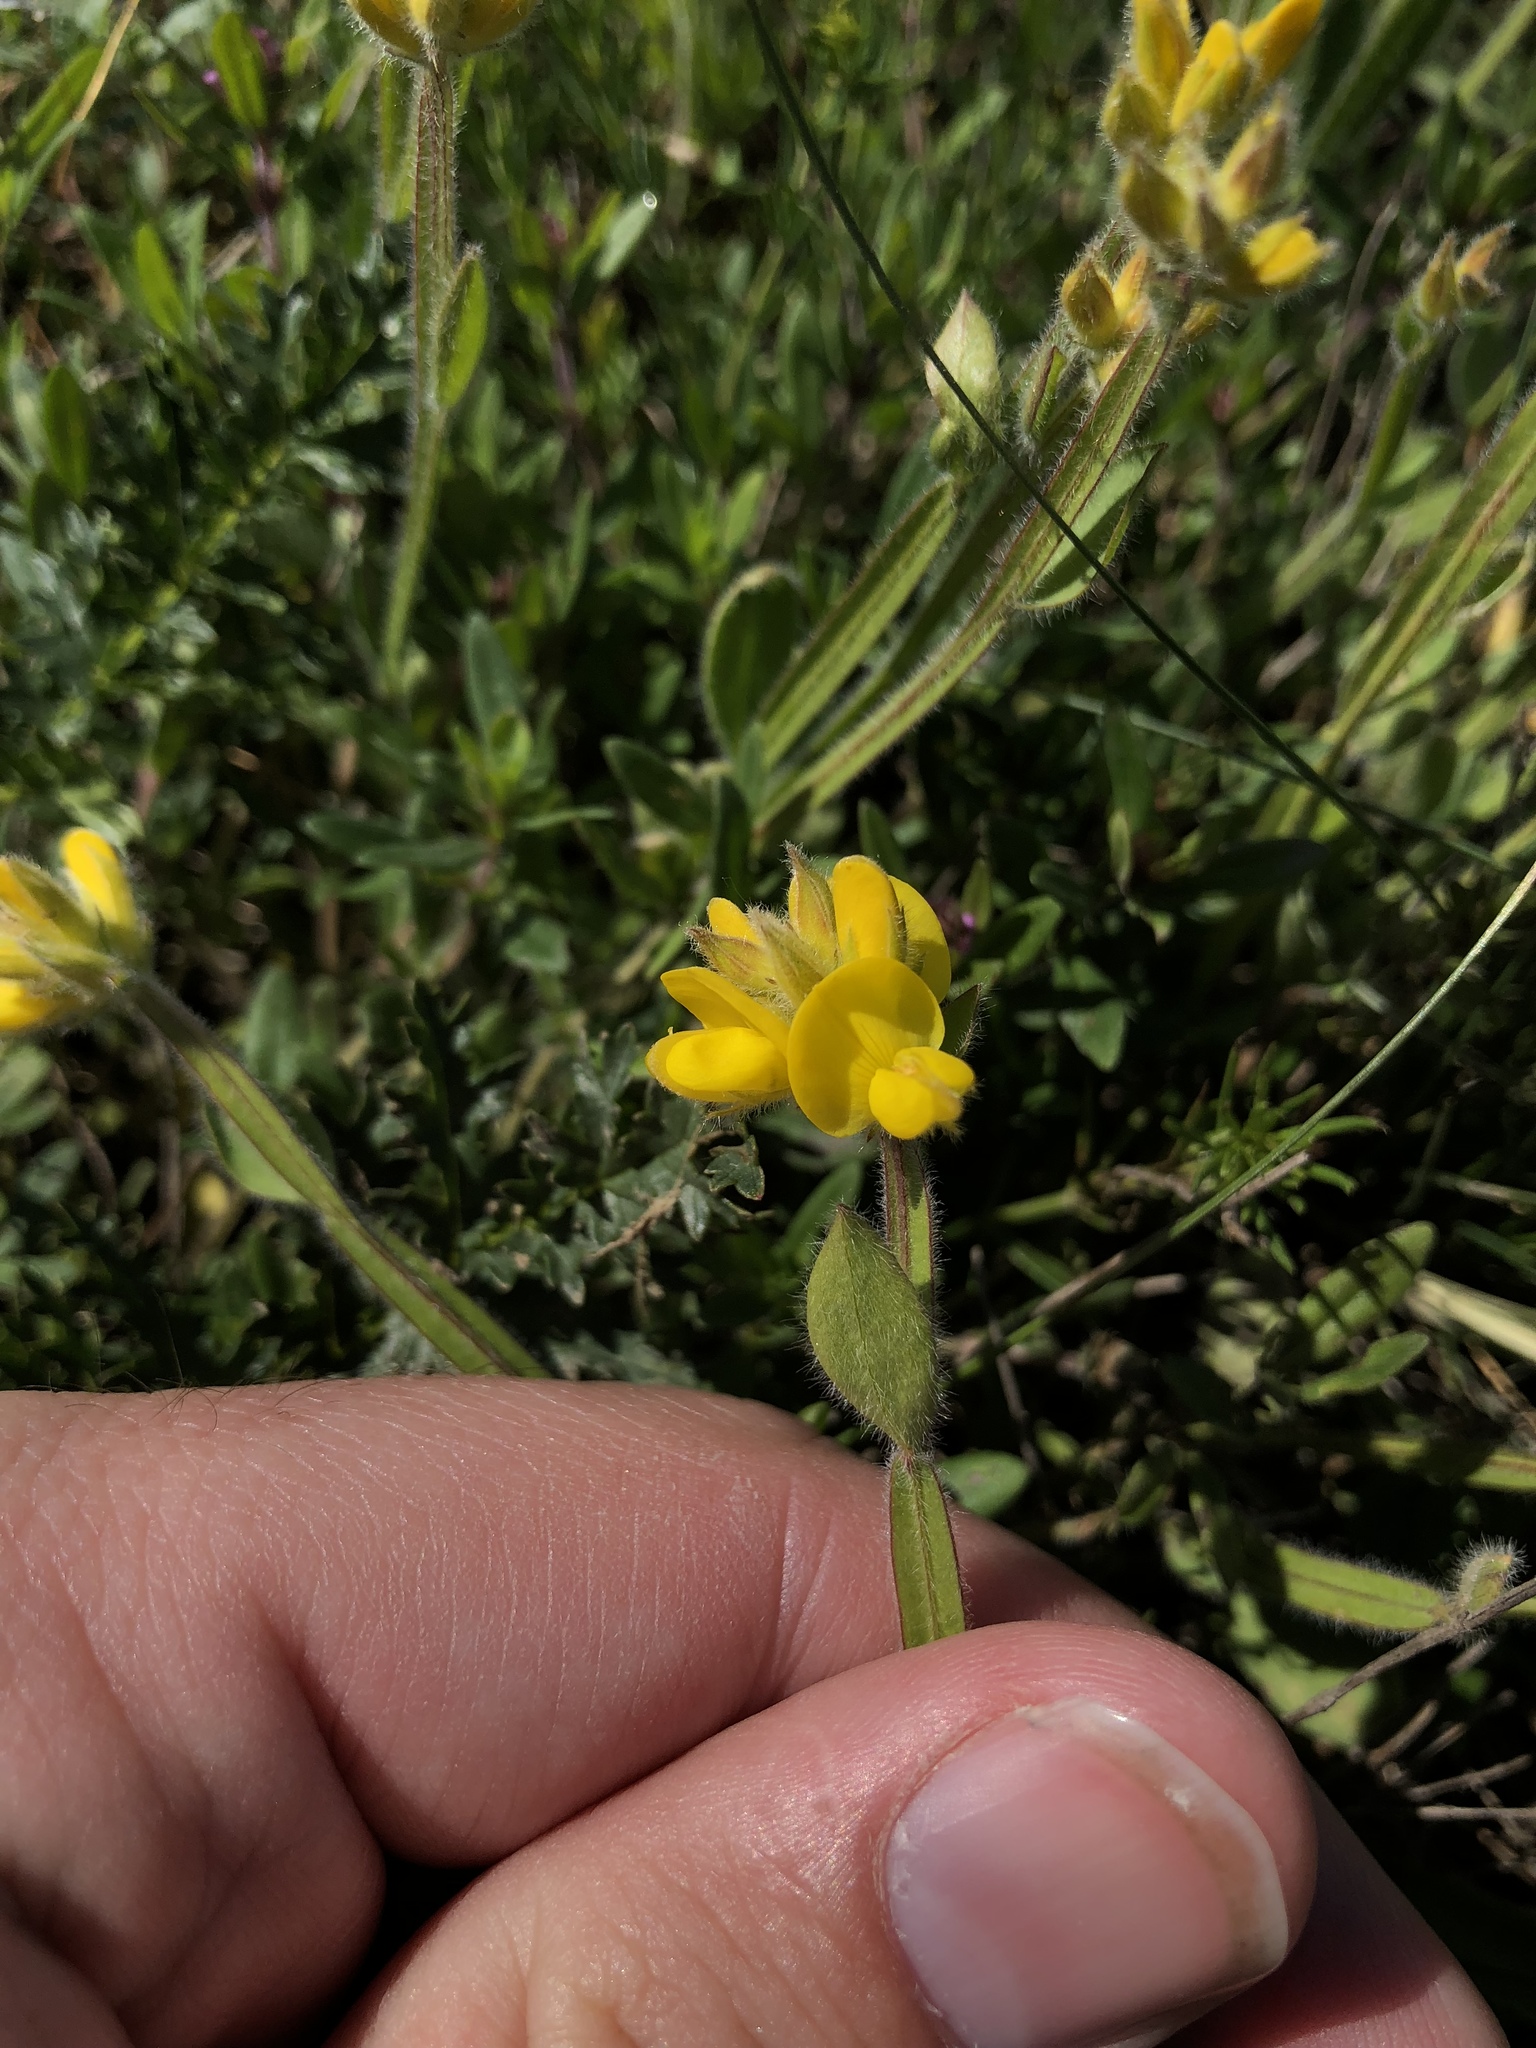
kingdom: Plantae
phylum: Tracheophyta
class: Magnoliopsida
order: Fabales
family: Fabaceae
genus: Genista
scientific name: Genista sagittalis
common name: Winged greenweed
